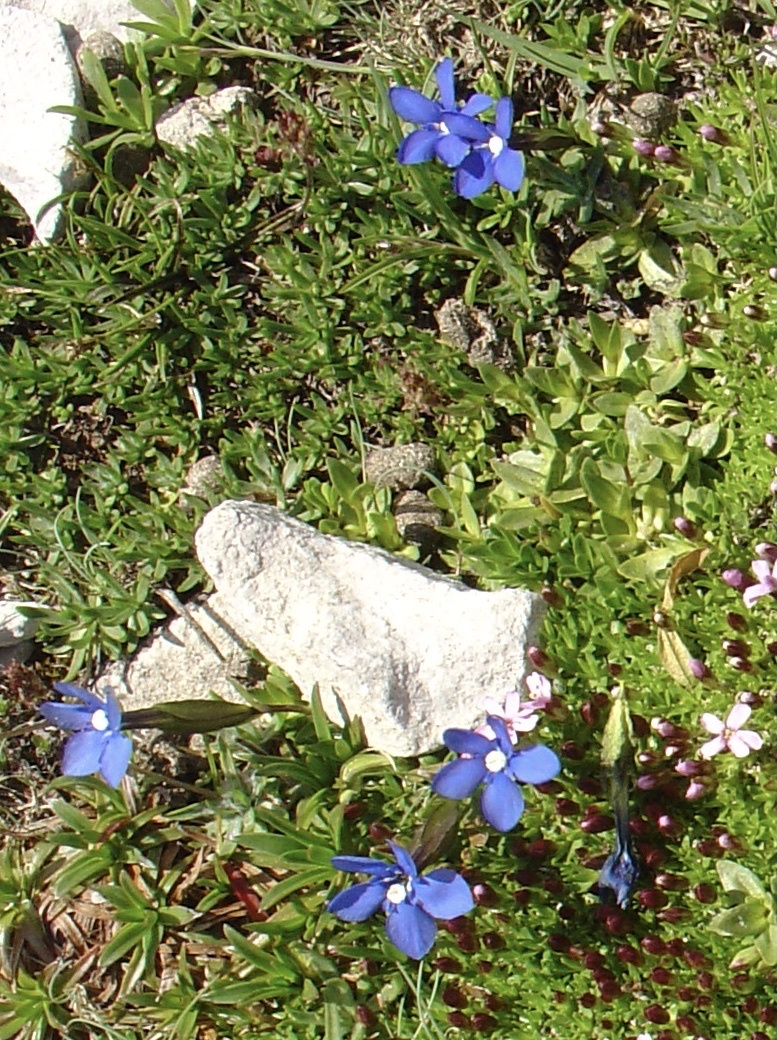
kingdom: Plantae
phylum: Tracheophyta
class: Magnoliopsida
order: Gentianales
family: Gentianaceae
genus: Gentiana
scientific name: Gentiana verna
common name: Spring gentian
